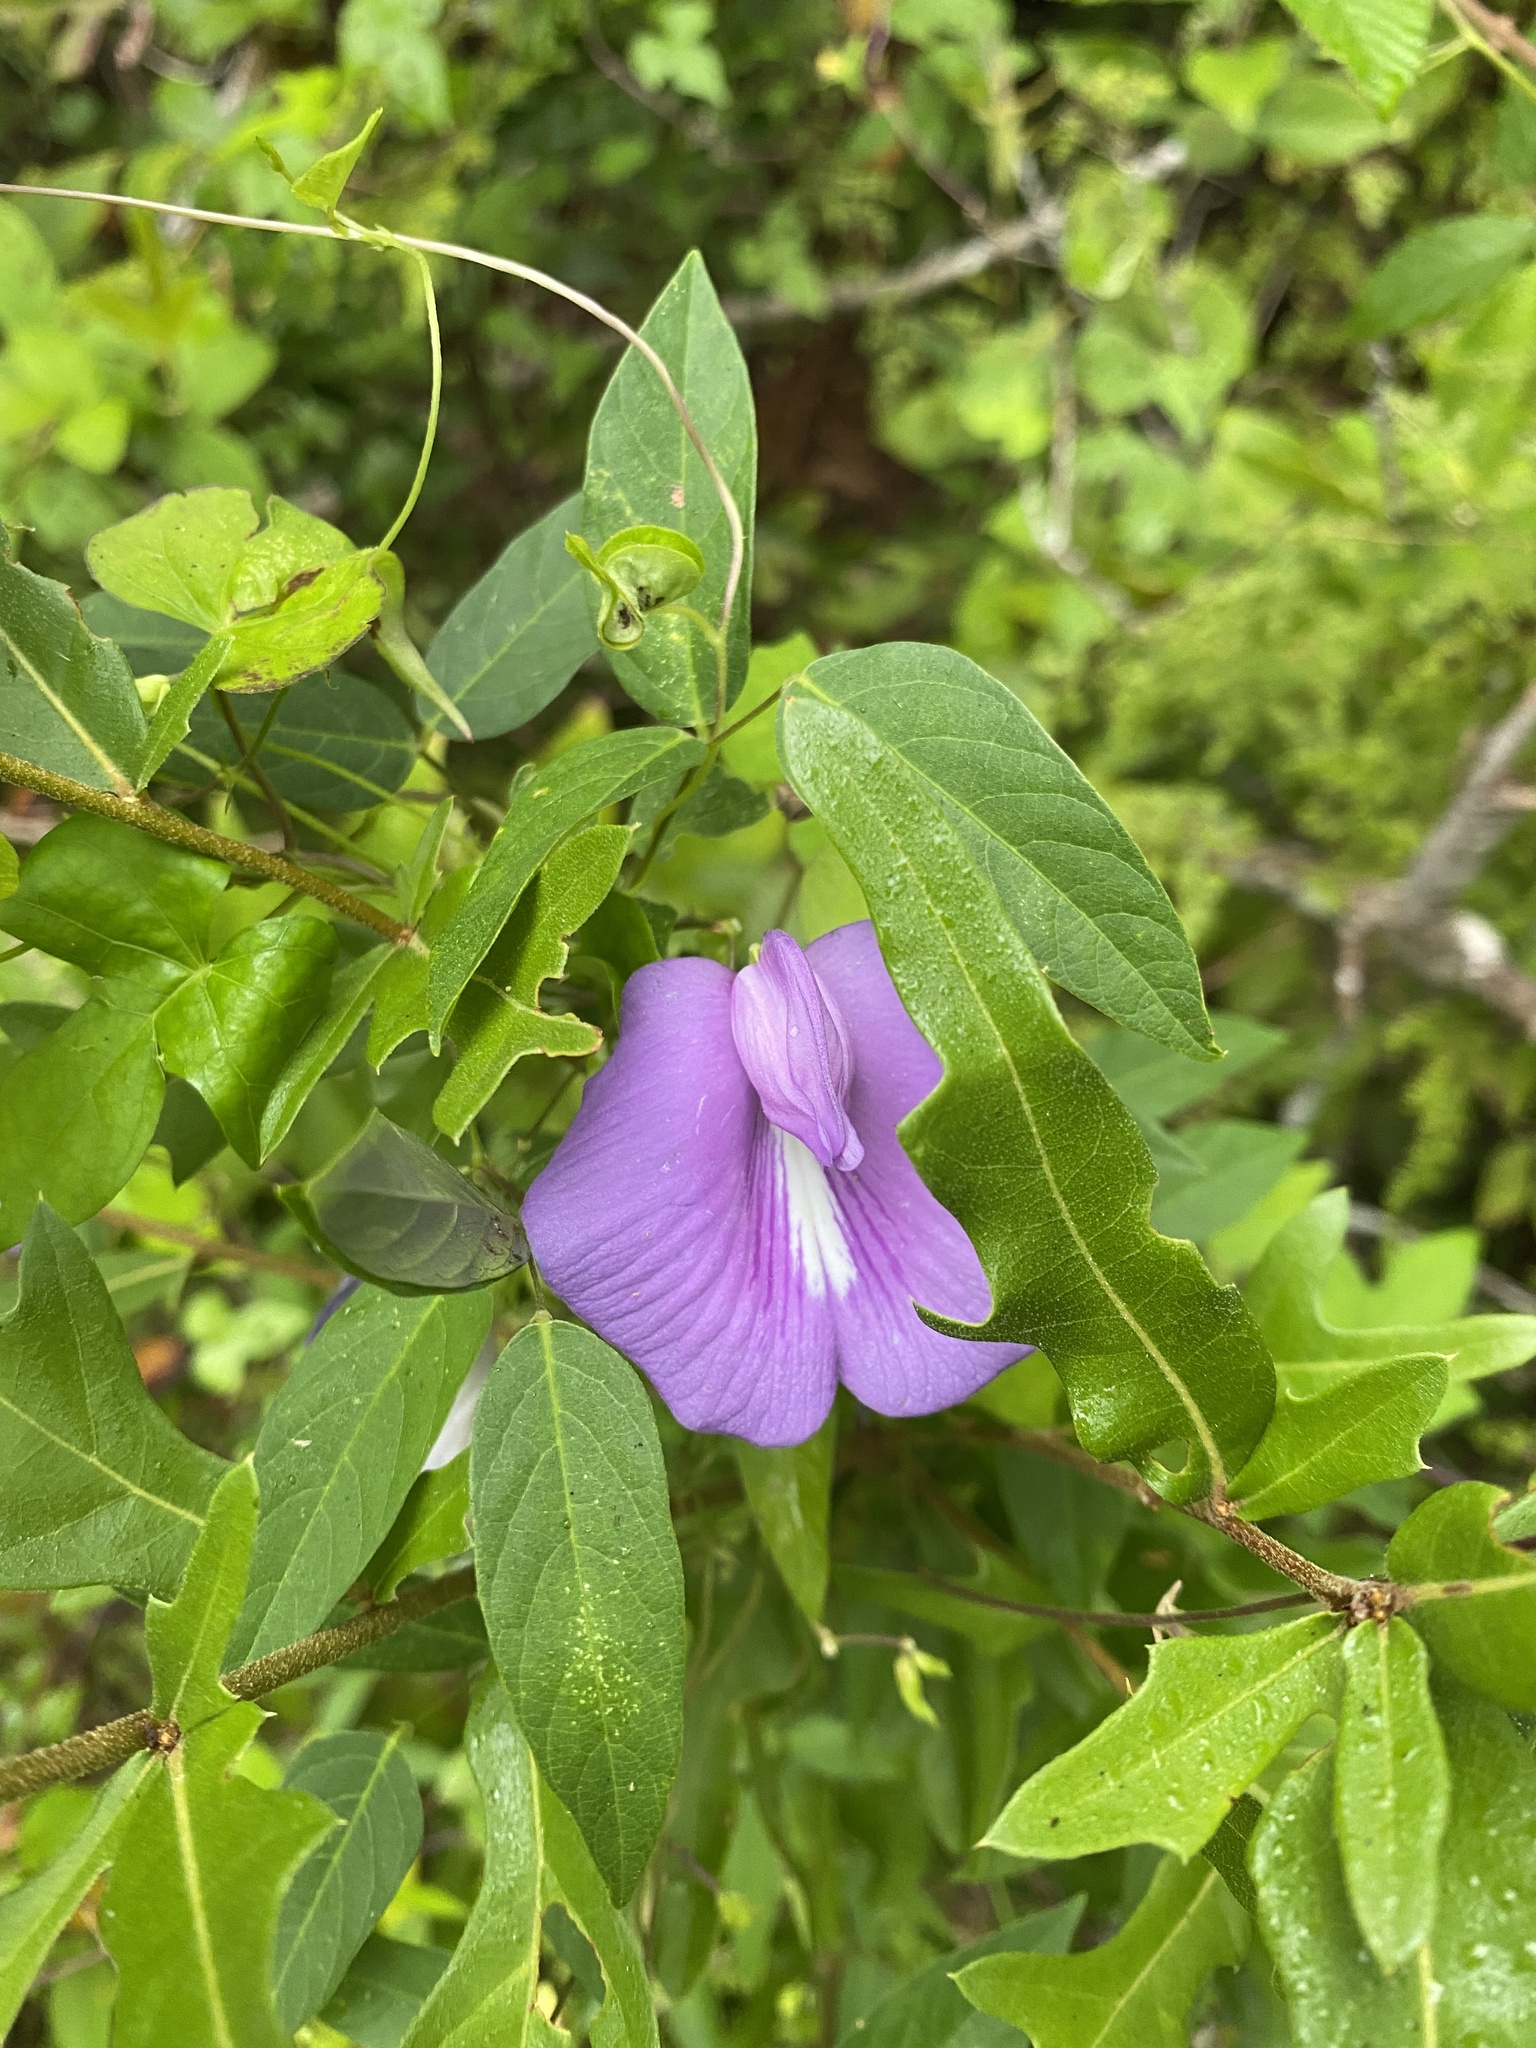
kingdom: Plantae
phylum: Tracheophyta
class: Magnoliopsida
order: Fabales
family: Fabaceae
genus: Centrosema
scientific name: Centrosema virginianum
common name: Butterfly-pea
